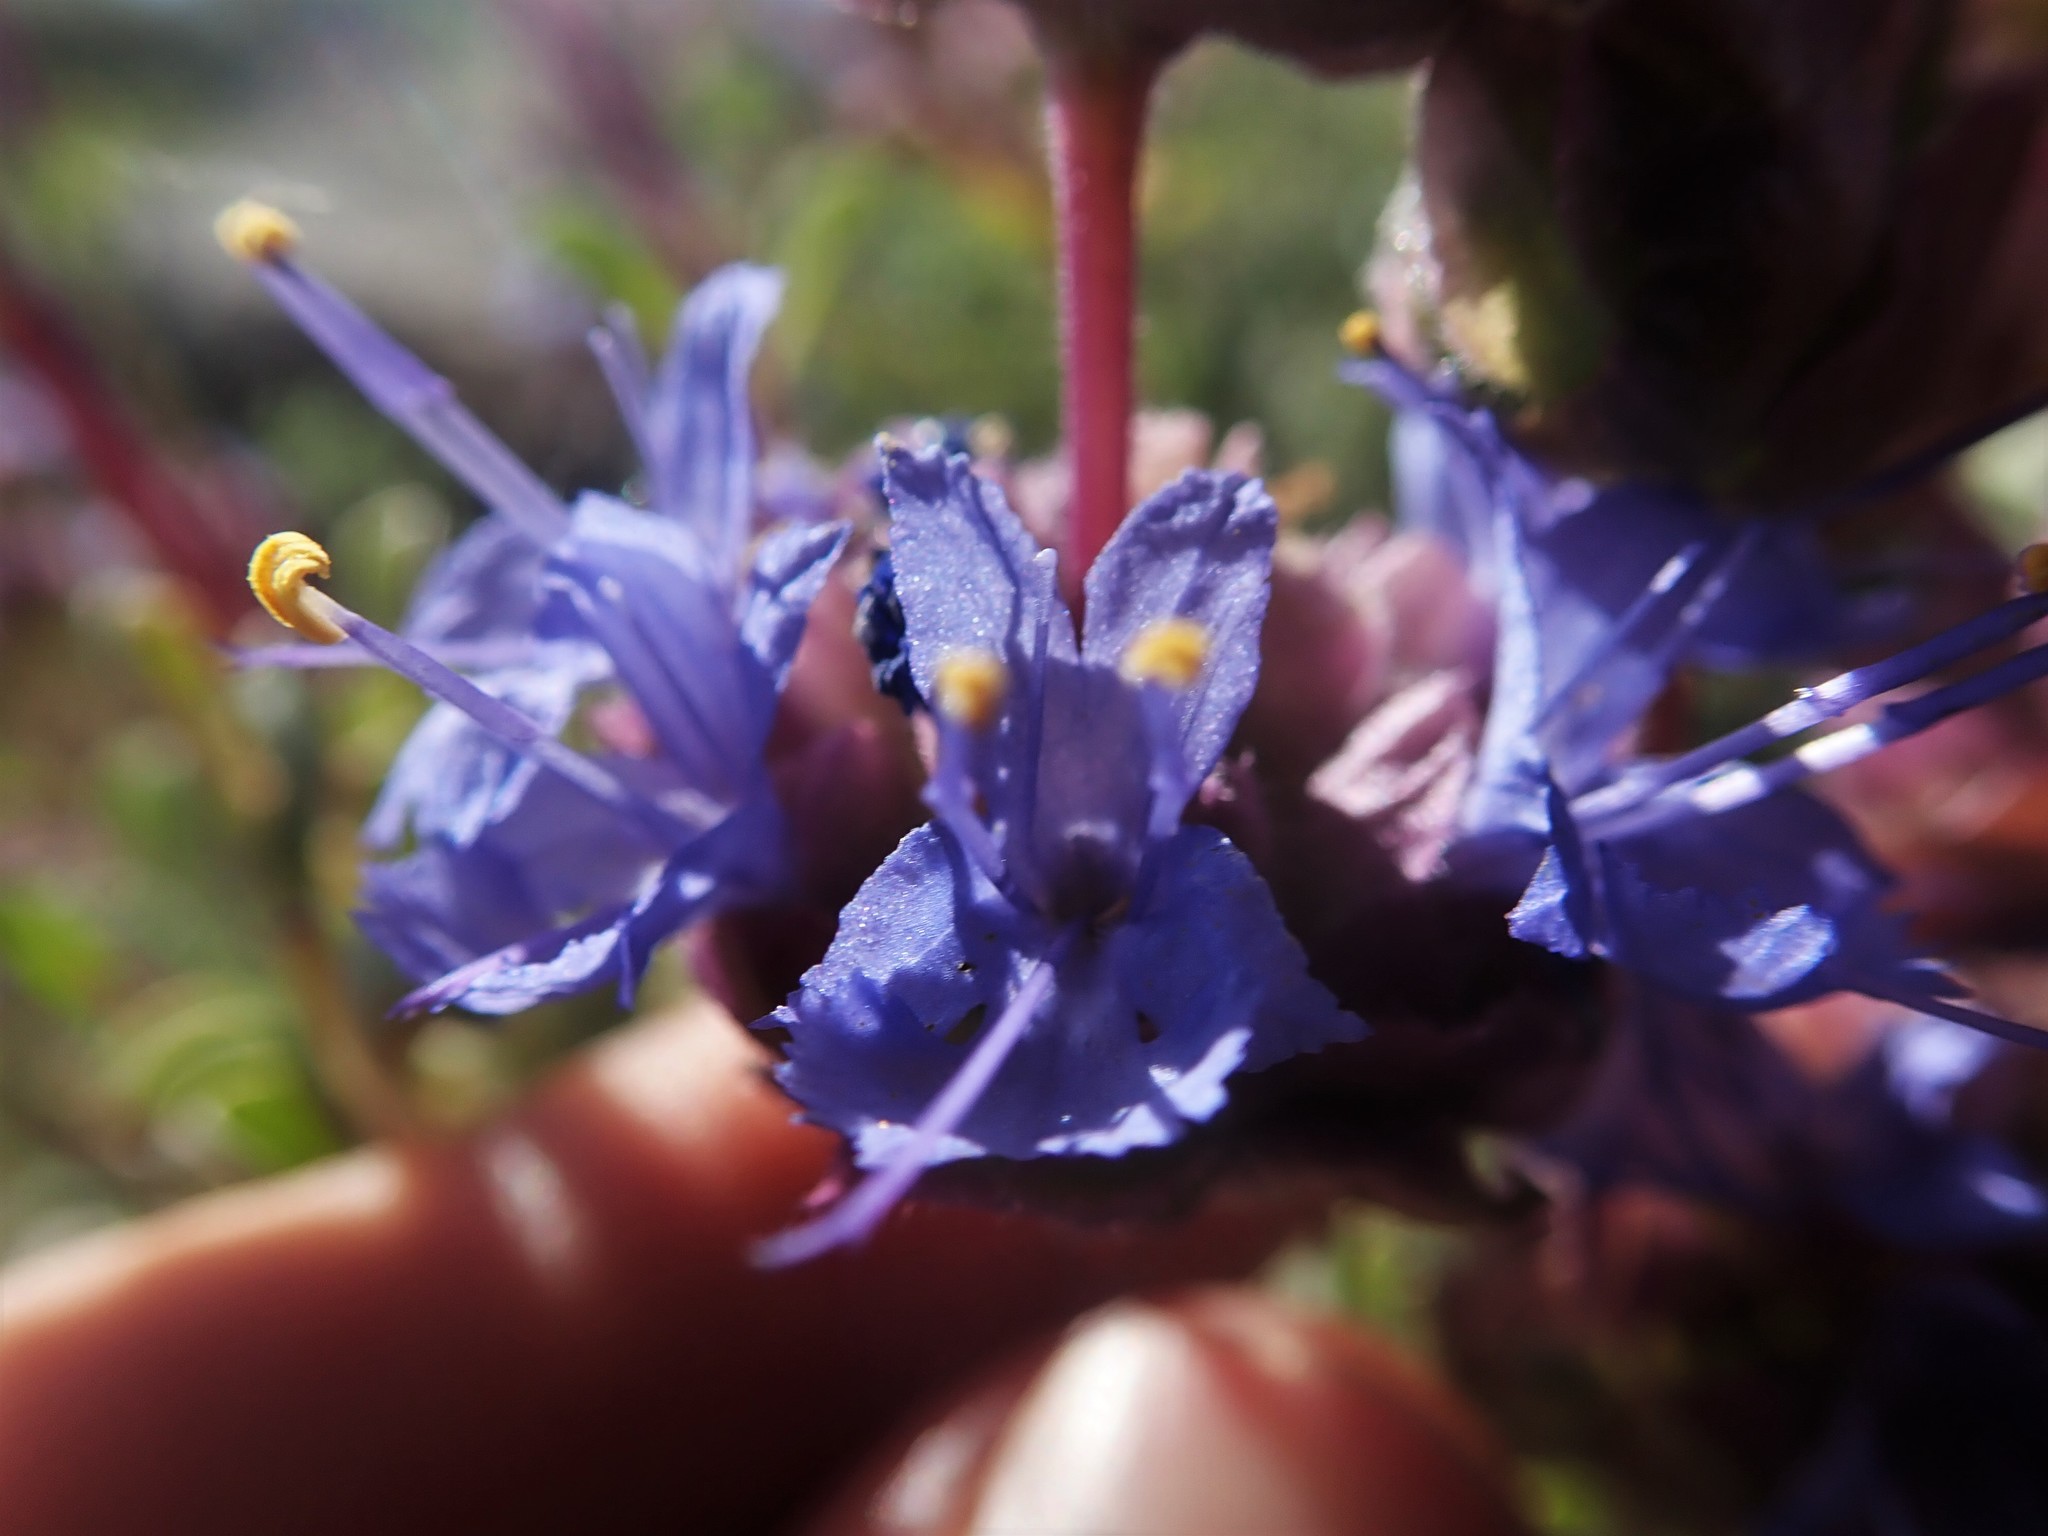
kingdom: Plantae
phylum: Tracheophyta
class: Magnoliopsida
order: Lamiales
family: Lamiaceae
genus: Salvia
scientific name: Salvia dorrii
